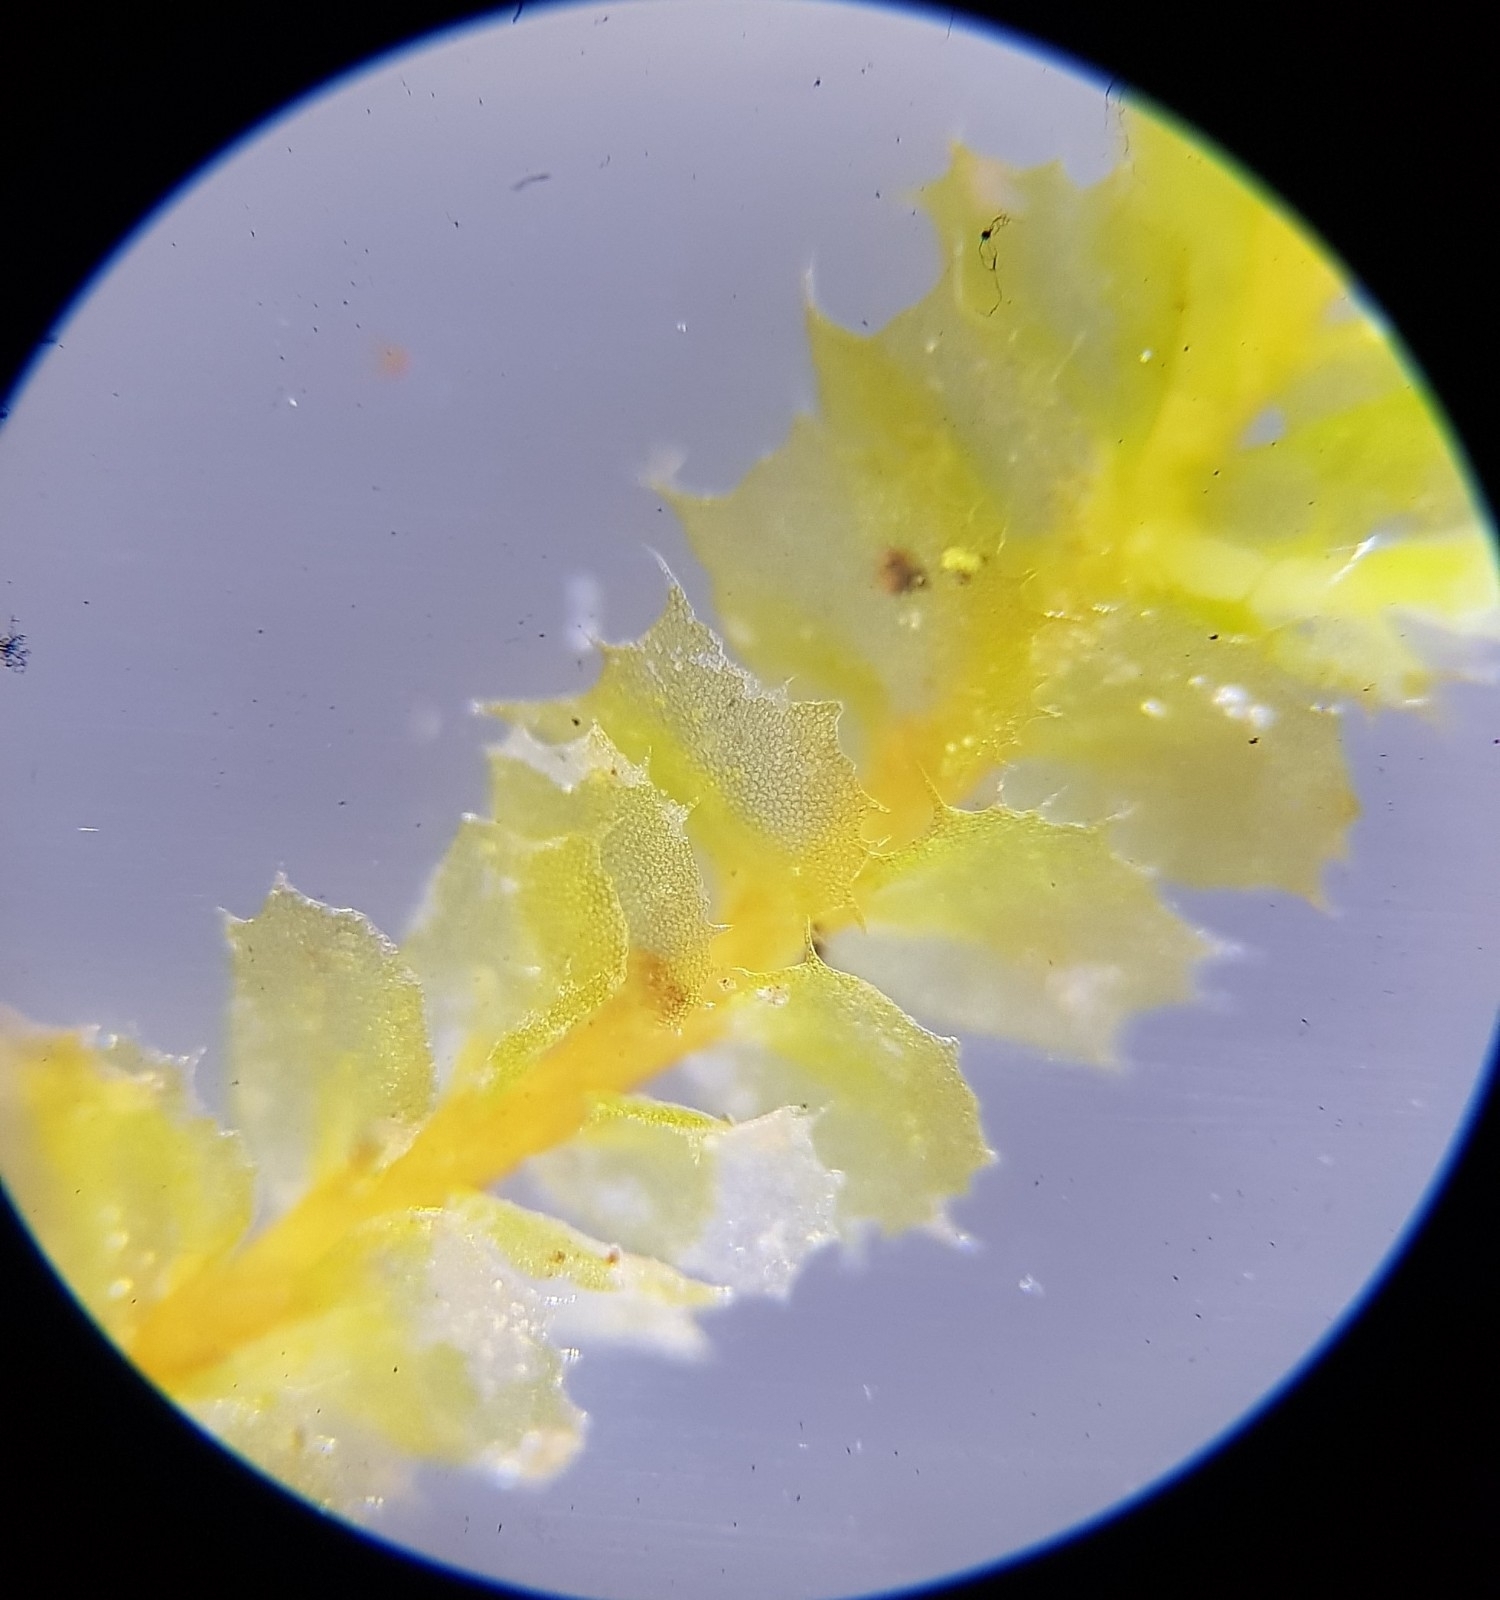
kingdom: Plantae
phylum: Marchantiophyta
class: Jungermanniopsida
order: Jungermanniales
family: Plagiochilaceae
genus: Plagiochila
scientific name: Plagiochila punctata
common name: Spotty featherwort
